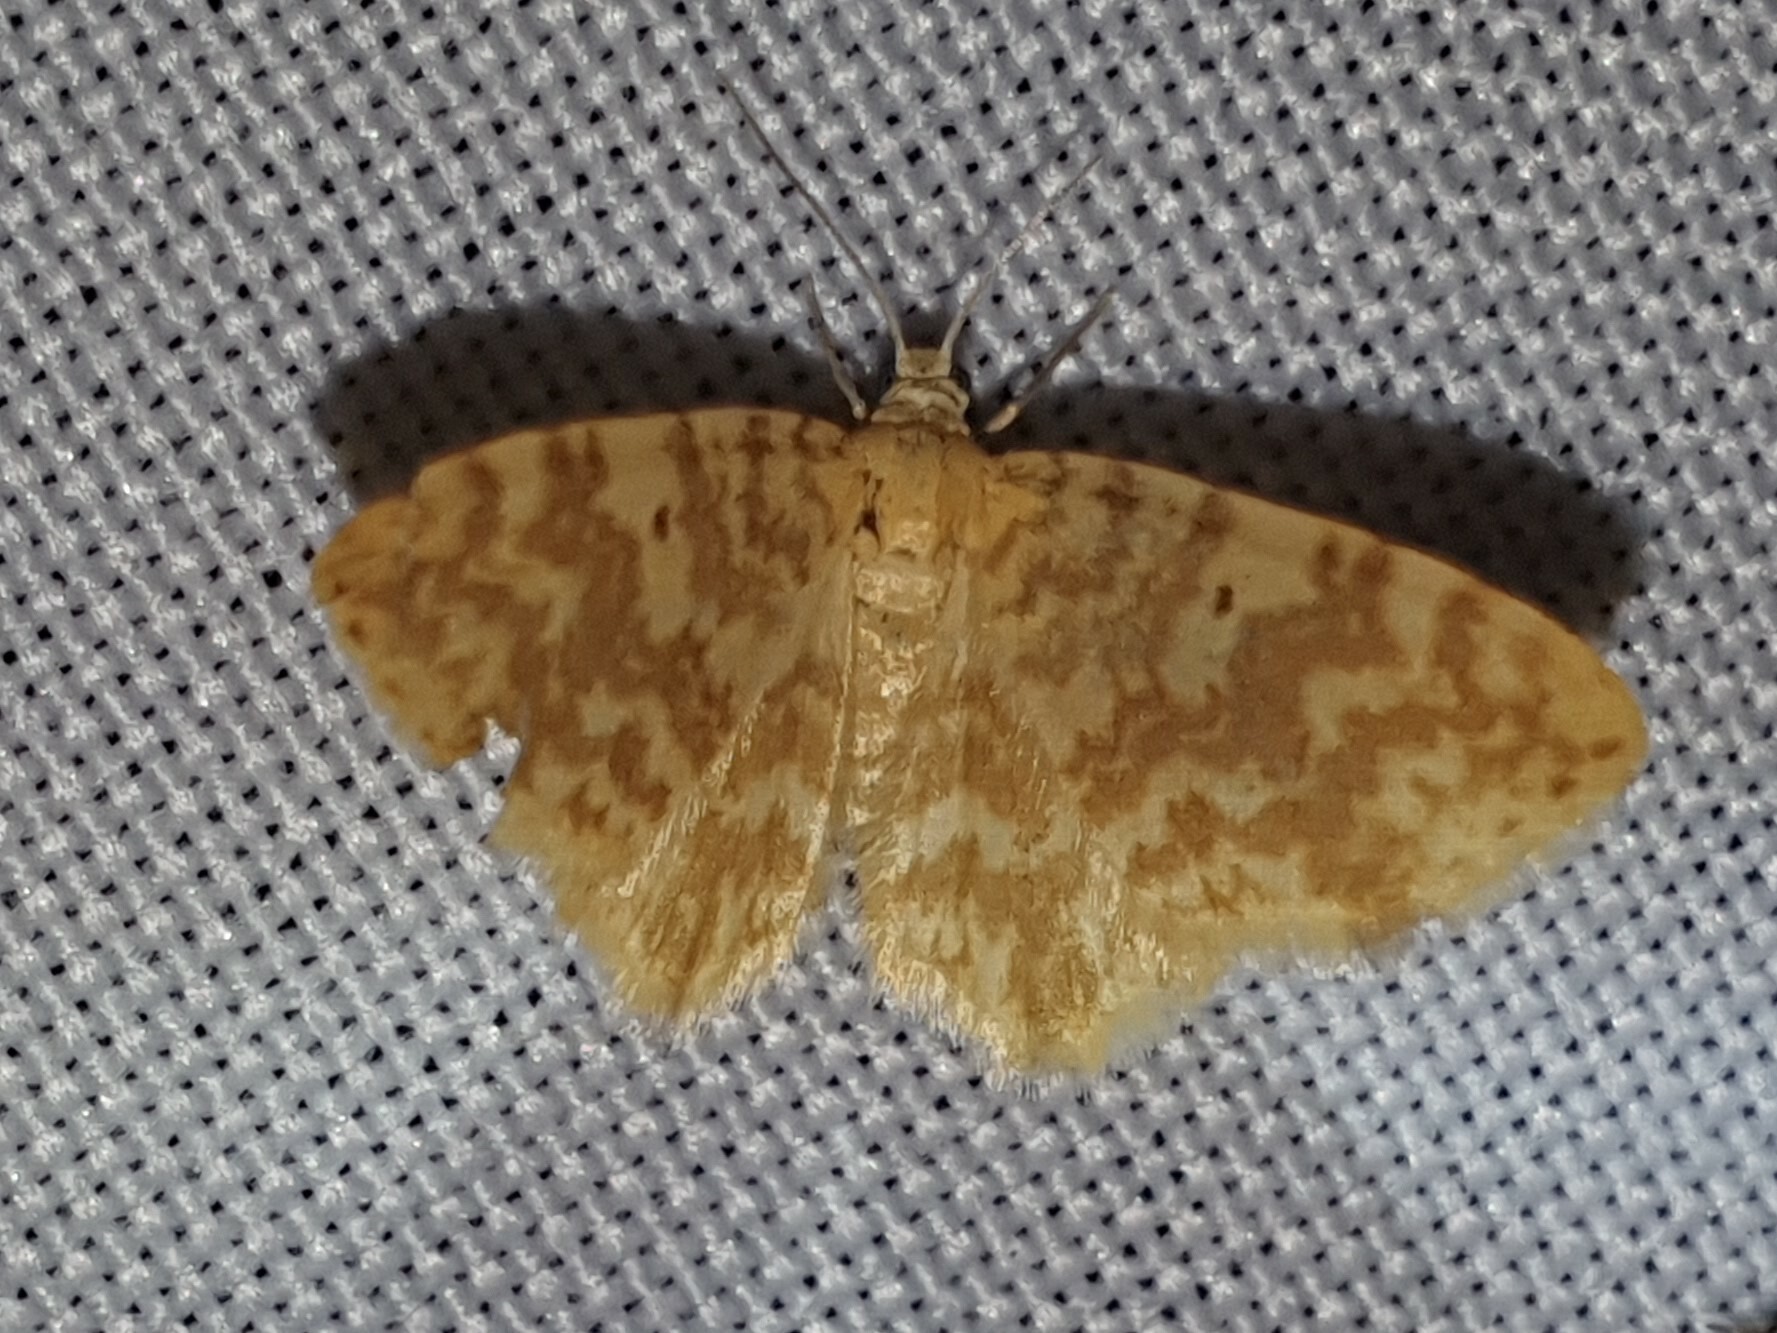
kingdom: Animalia
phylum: Arthropoda
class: Insecta
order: Lepidoptera
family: Geometridae
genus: Hydrelia
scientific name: Hydrelia flammeolaria
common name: Small yellow wave
